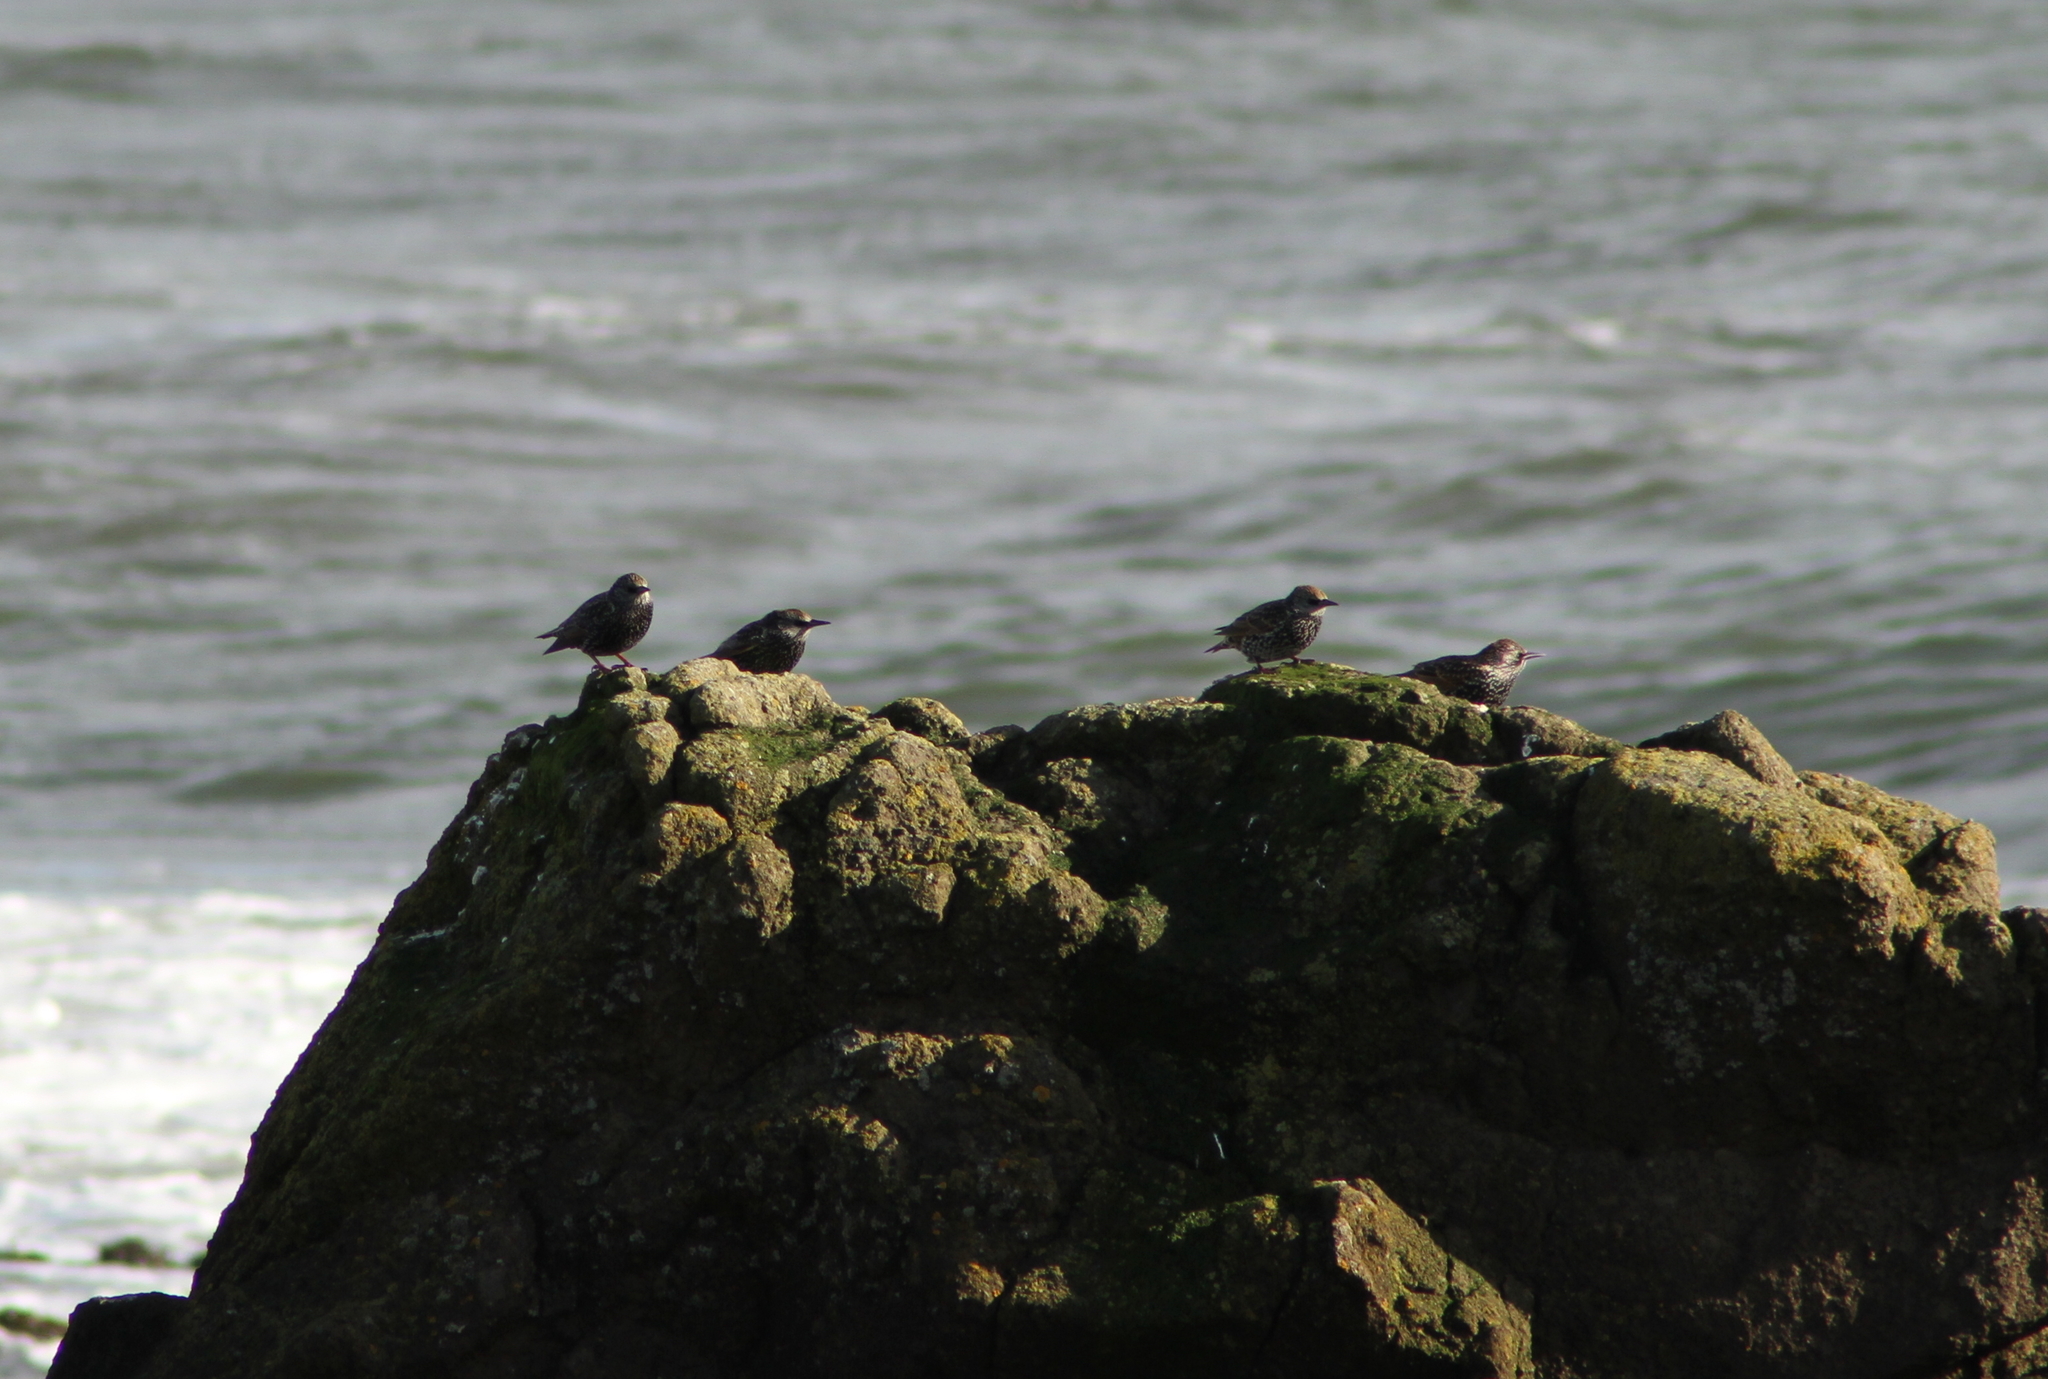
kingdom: Animalia
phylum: Chordata
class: Aves
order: Passeriformes
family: Sturnidae
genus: Sturnus
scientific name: Sturnus vulgaris
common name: Common starling
